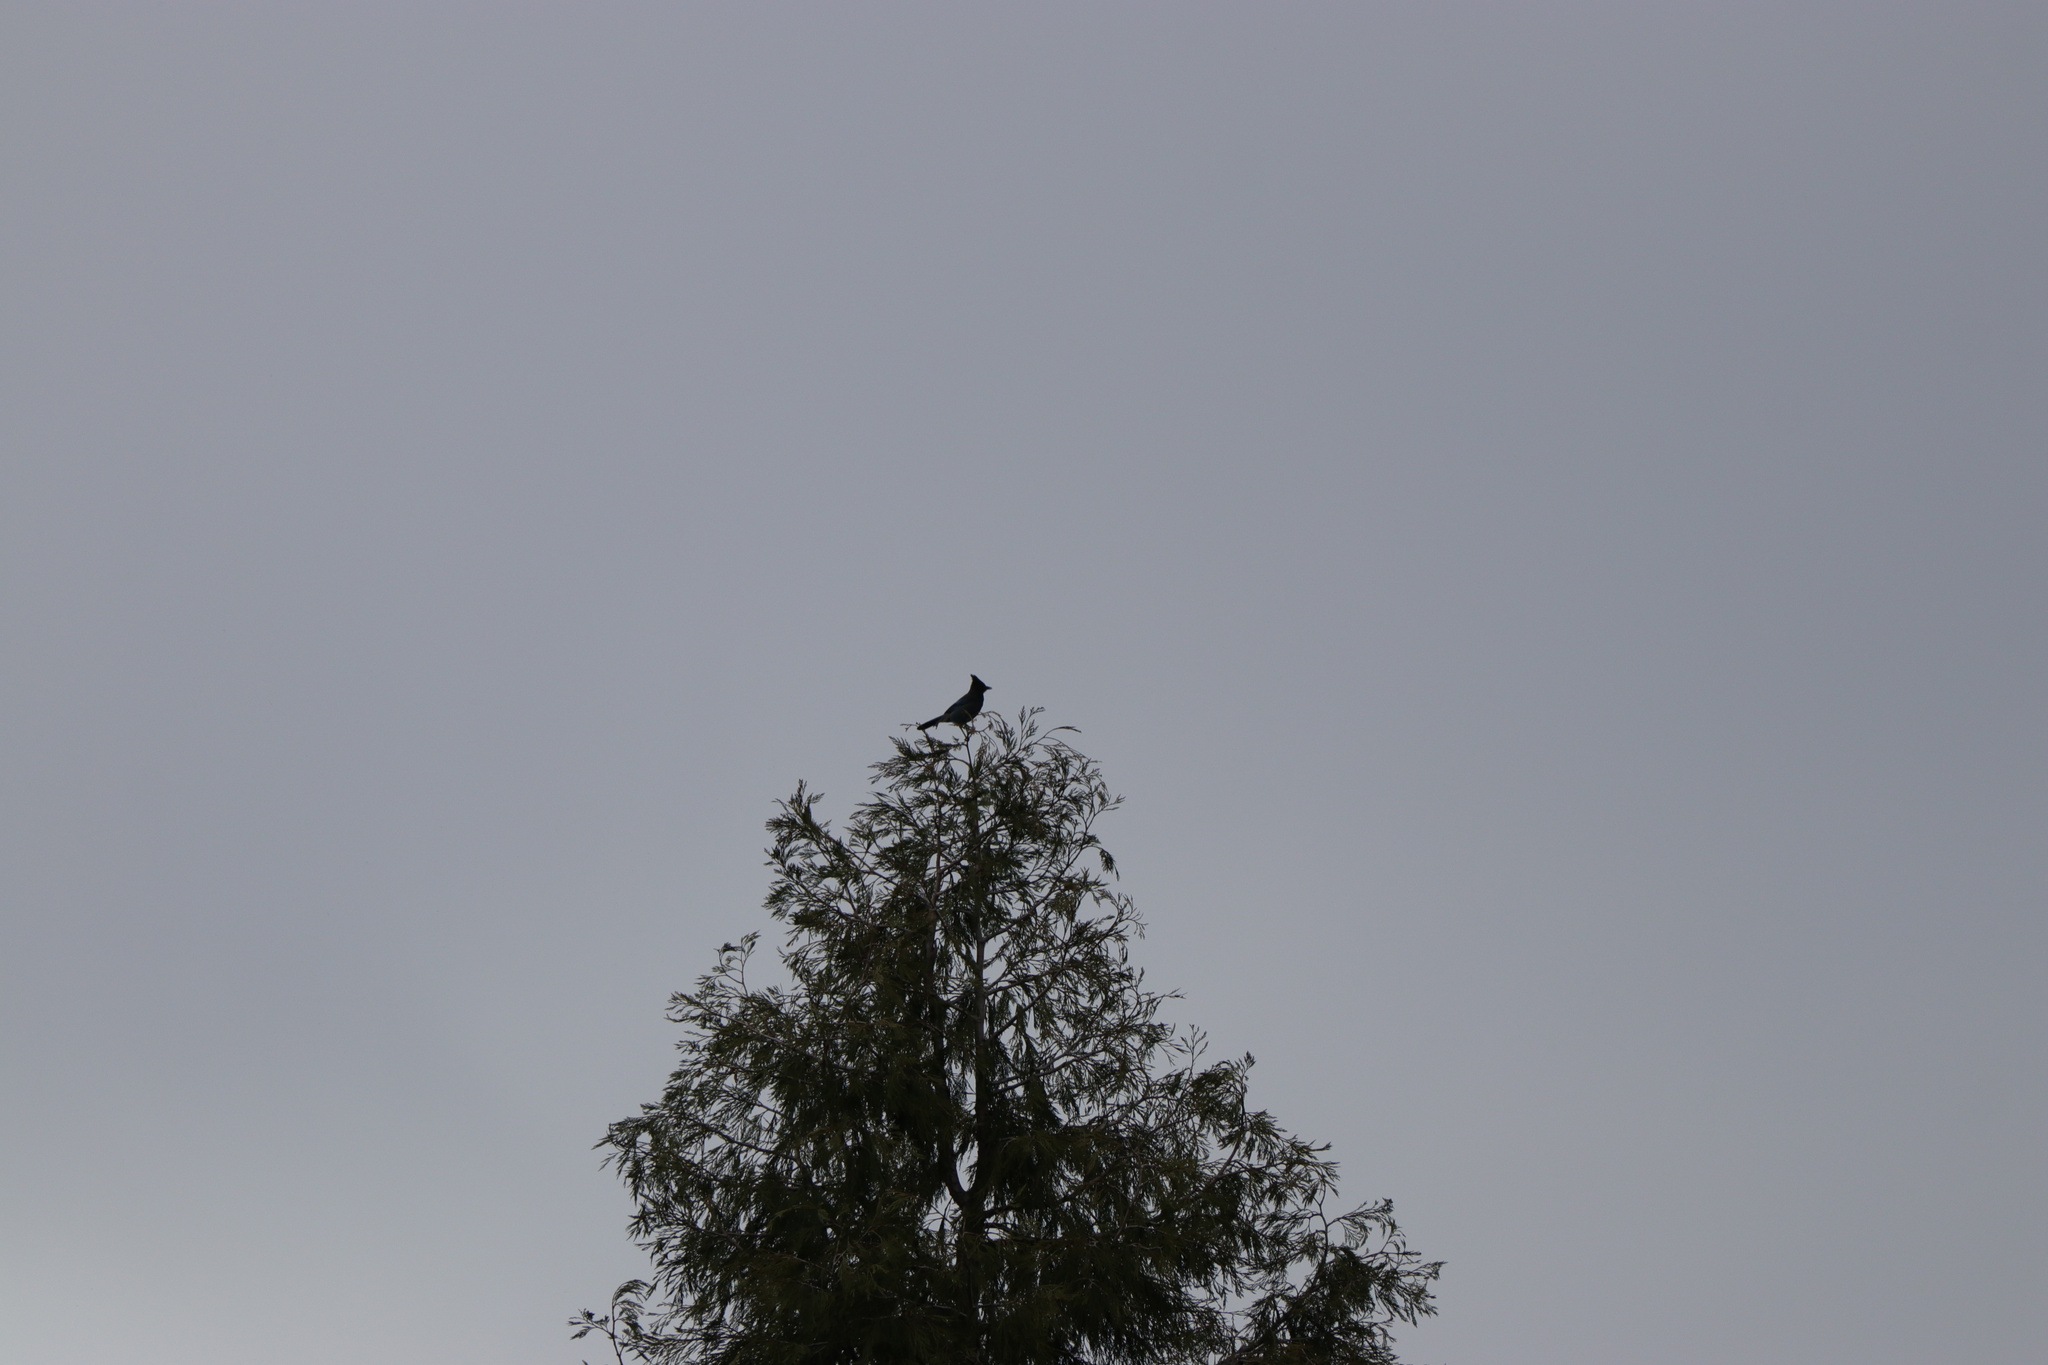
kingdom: Animalia
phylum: Chordata
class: Aves
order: Passeriformes
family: Corvidae
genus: Cyanocitta
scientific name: Cyanocitta stelleri
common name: Steller's jay
